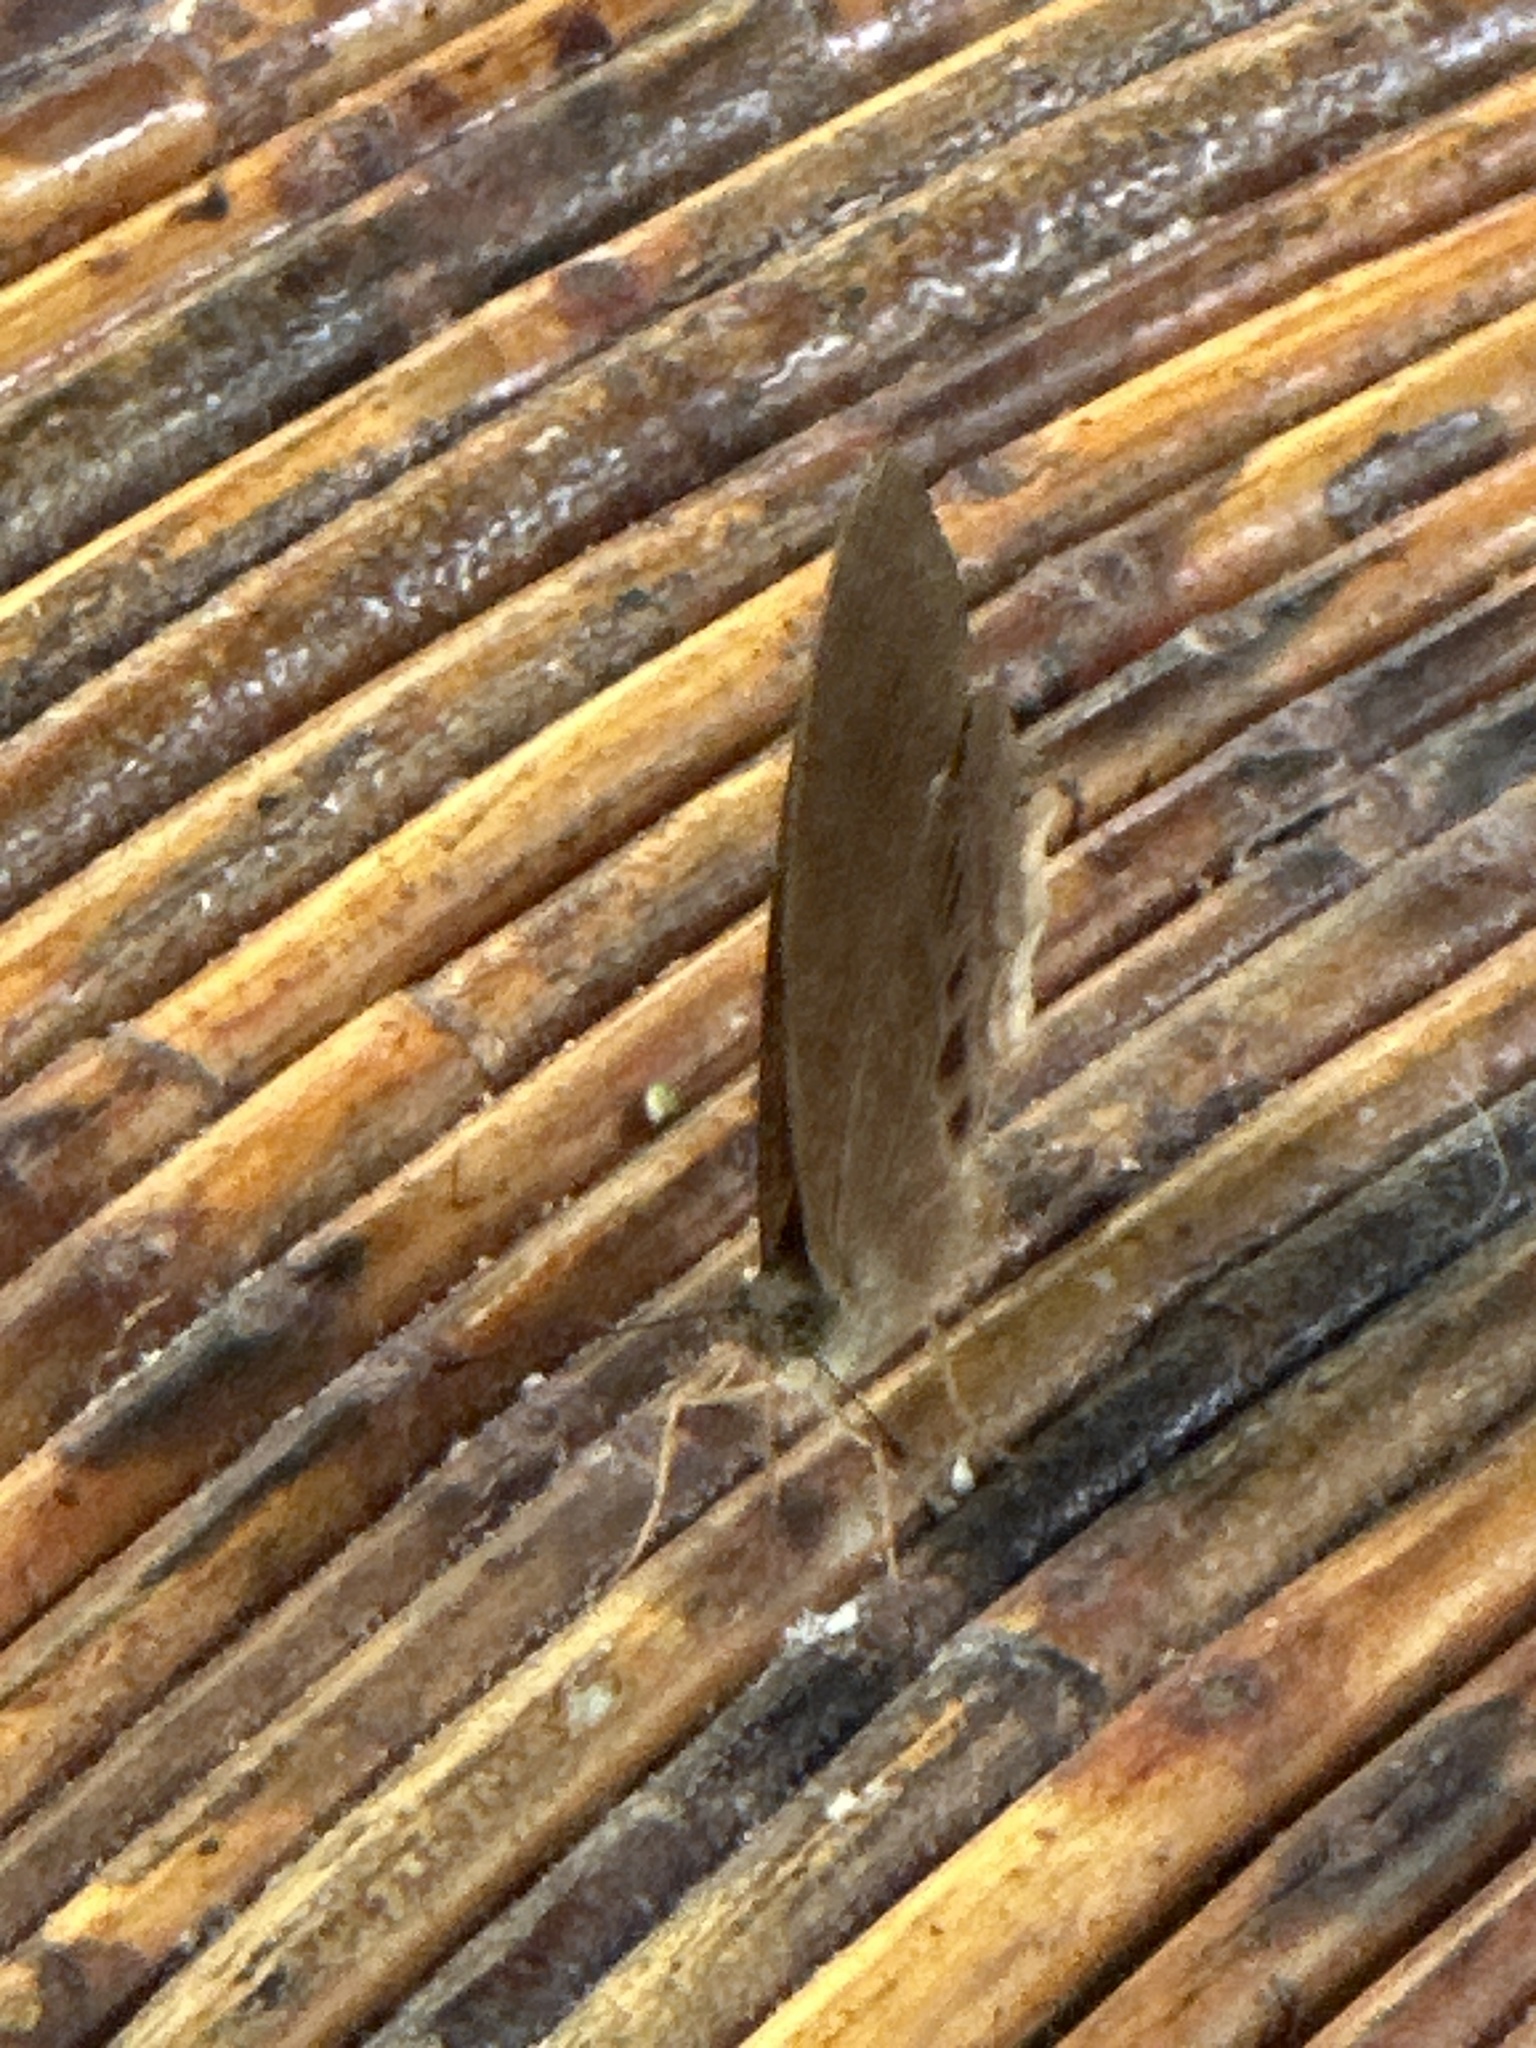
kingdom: Animalia
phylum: Arthropoda
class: Insecta
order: Lepidoptera
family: Nymphalidae
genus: Terinos
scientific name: Terinos taxiles
